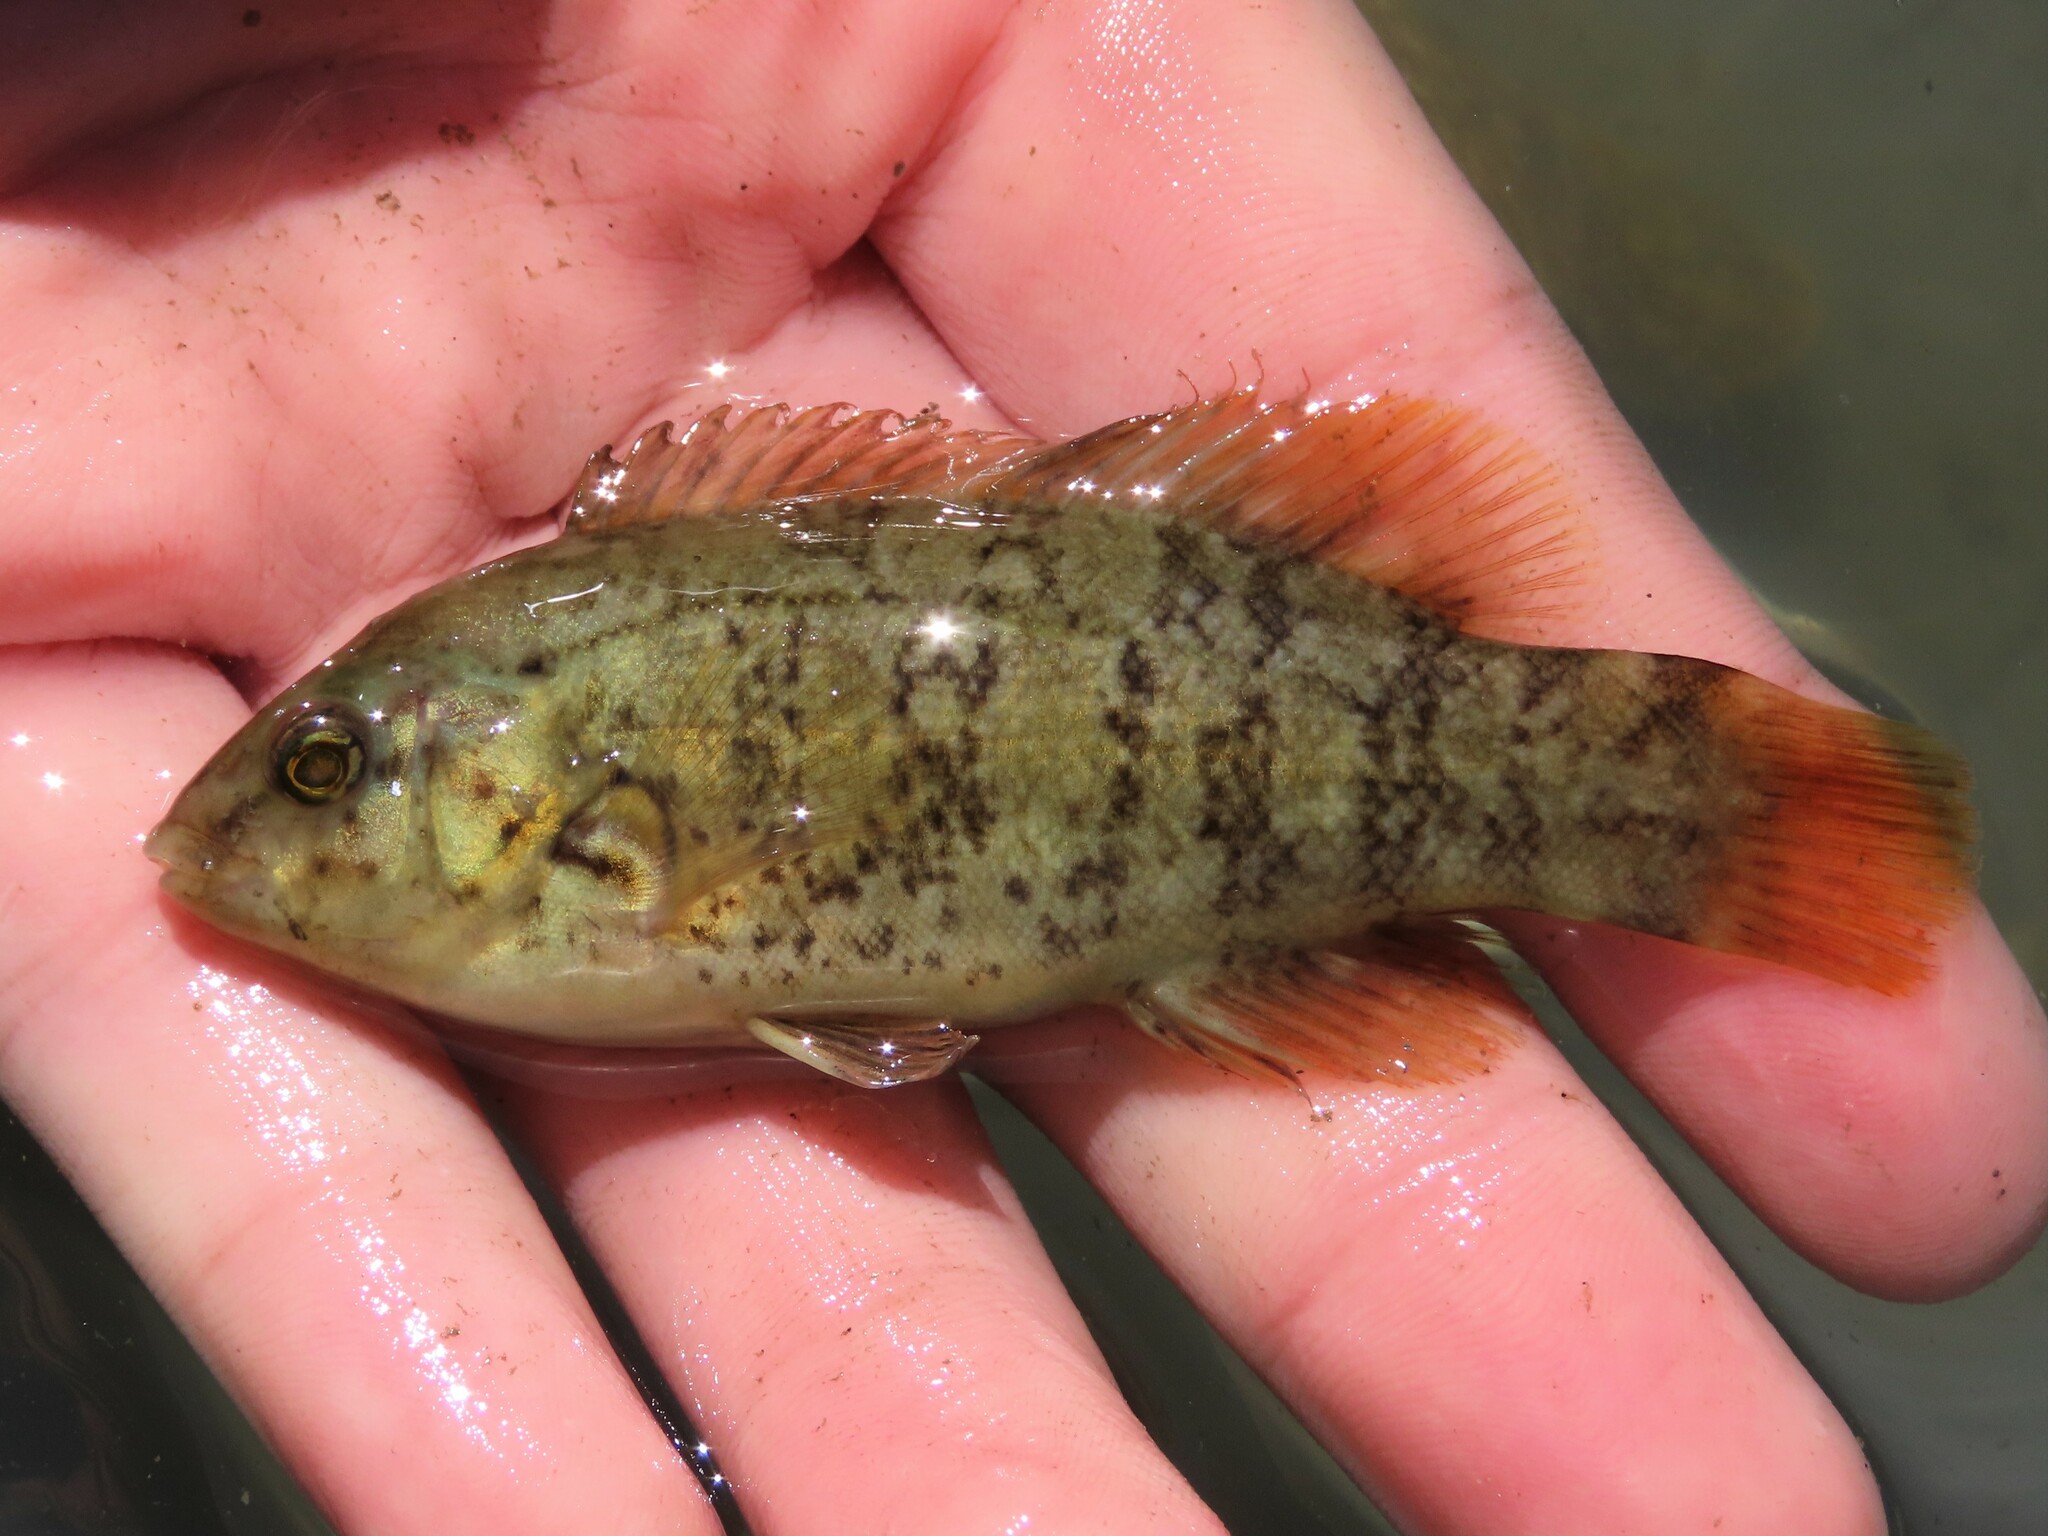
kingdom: Animalia
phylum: Chordata
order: Perciformes
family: Labridae
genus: Tautoga
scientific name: Tautoga onitis
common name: Tautog
